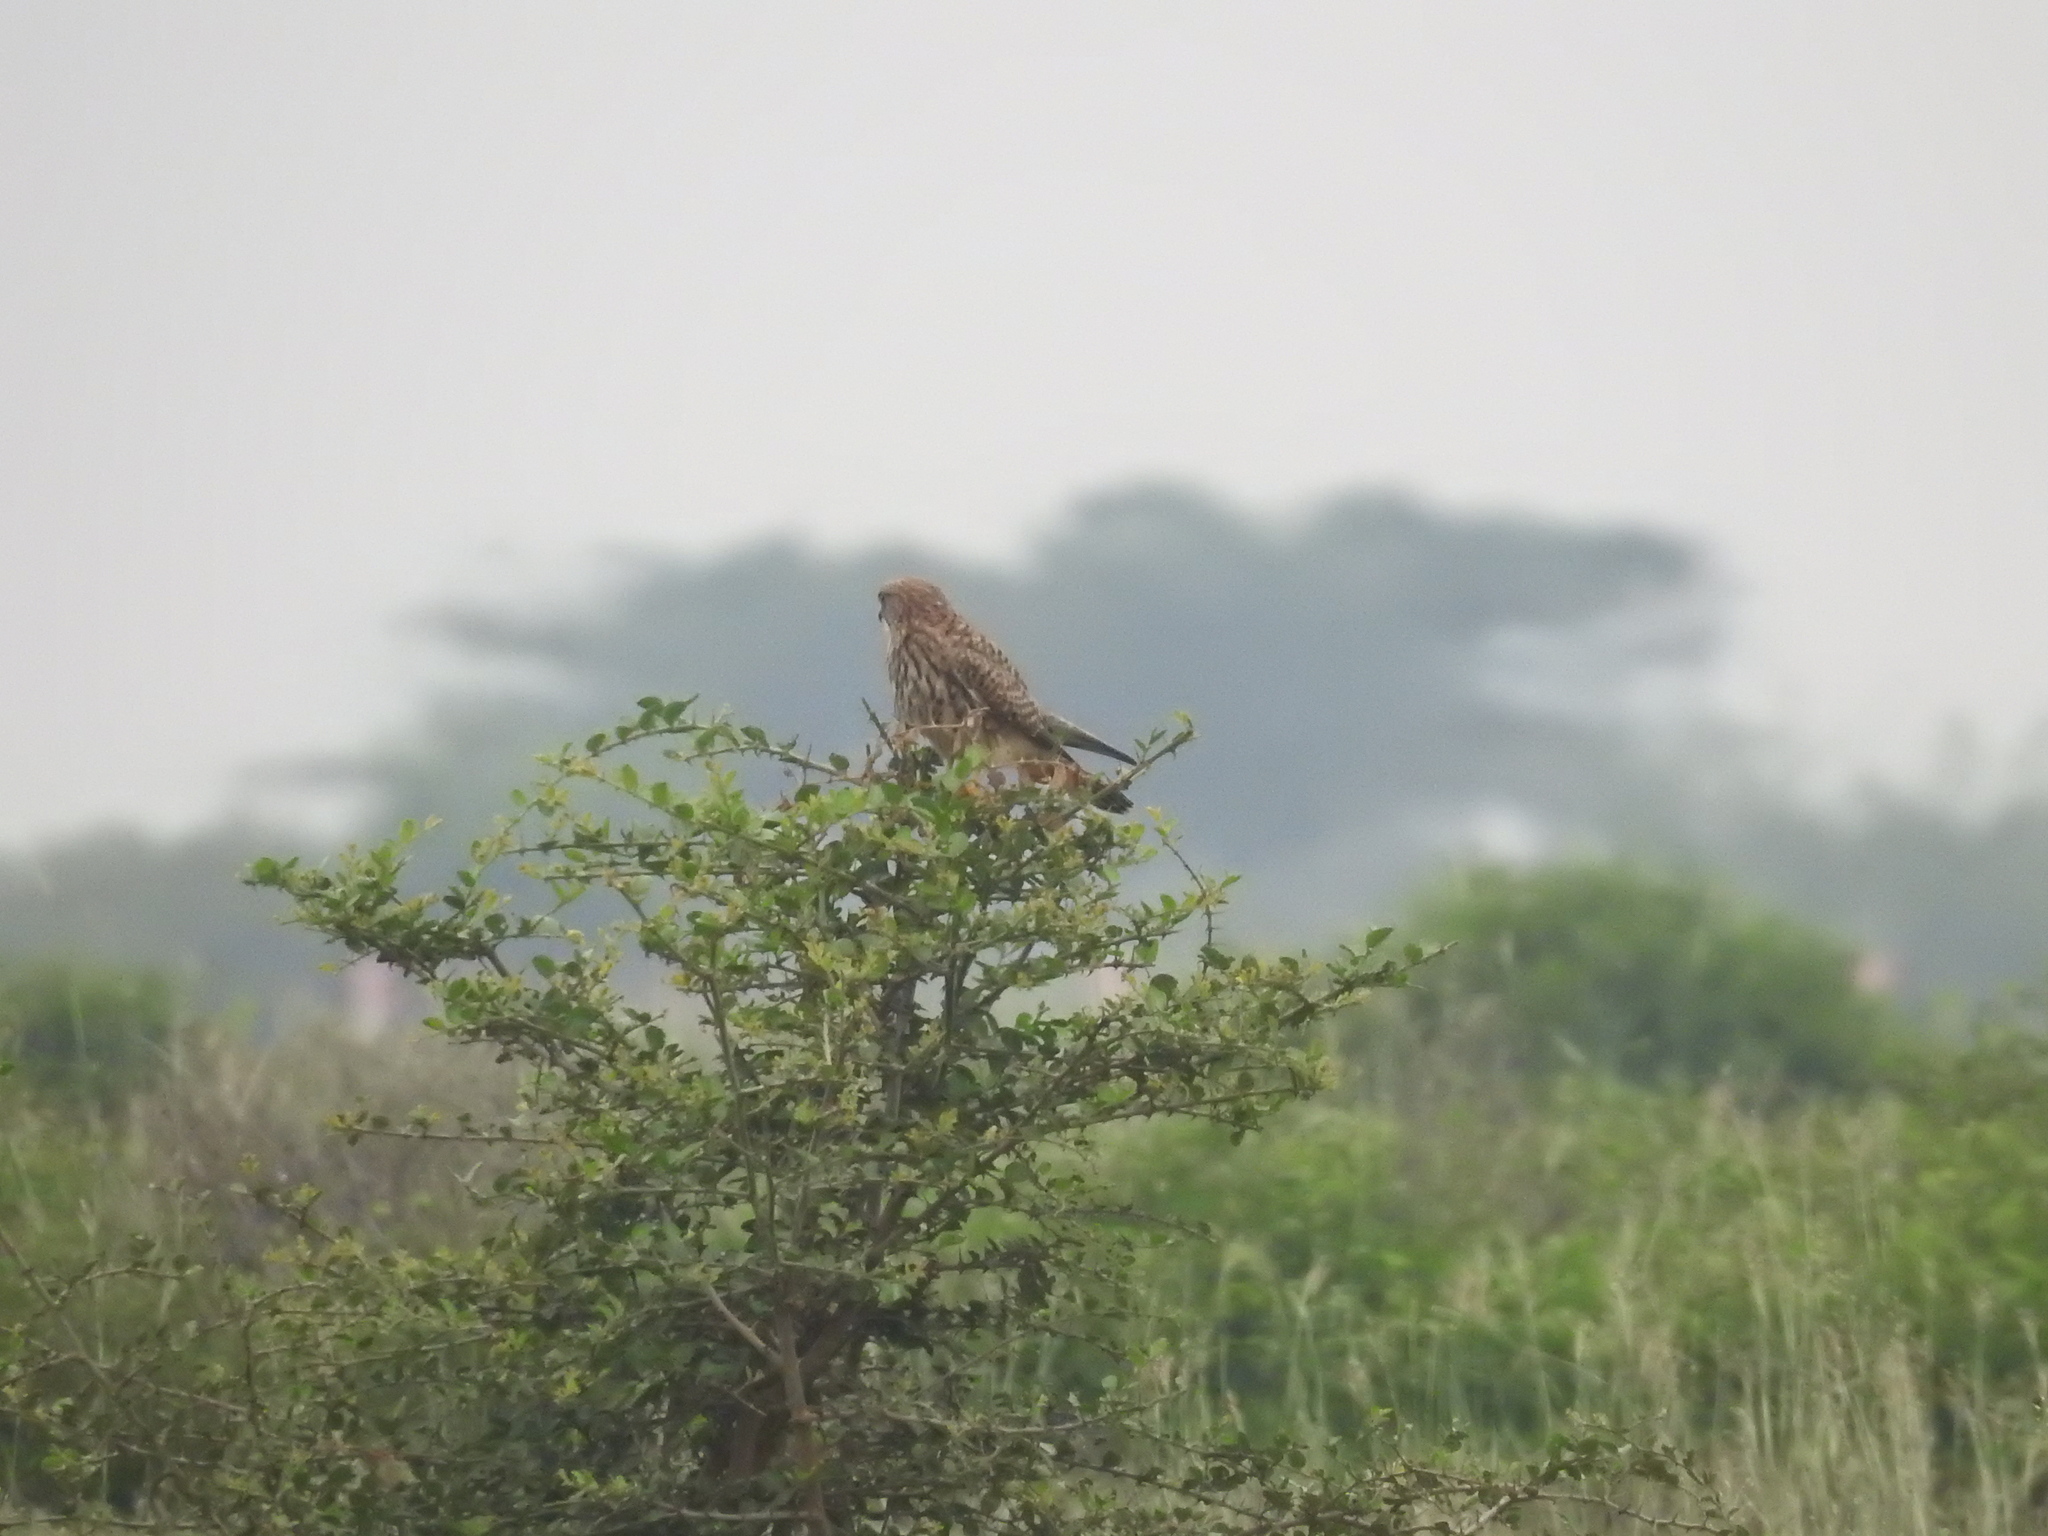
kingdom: Animalia
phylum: Chordata
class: Aves
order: Falconiformes
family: Falconidae
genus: Falco
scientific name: Falco tinnunculus
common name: Common kestrel
